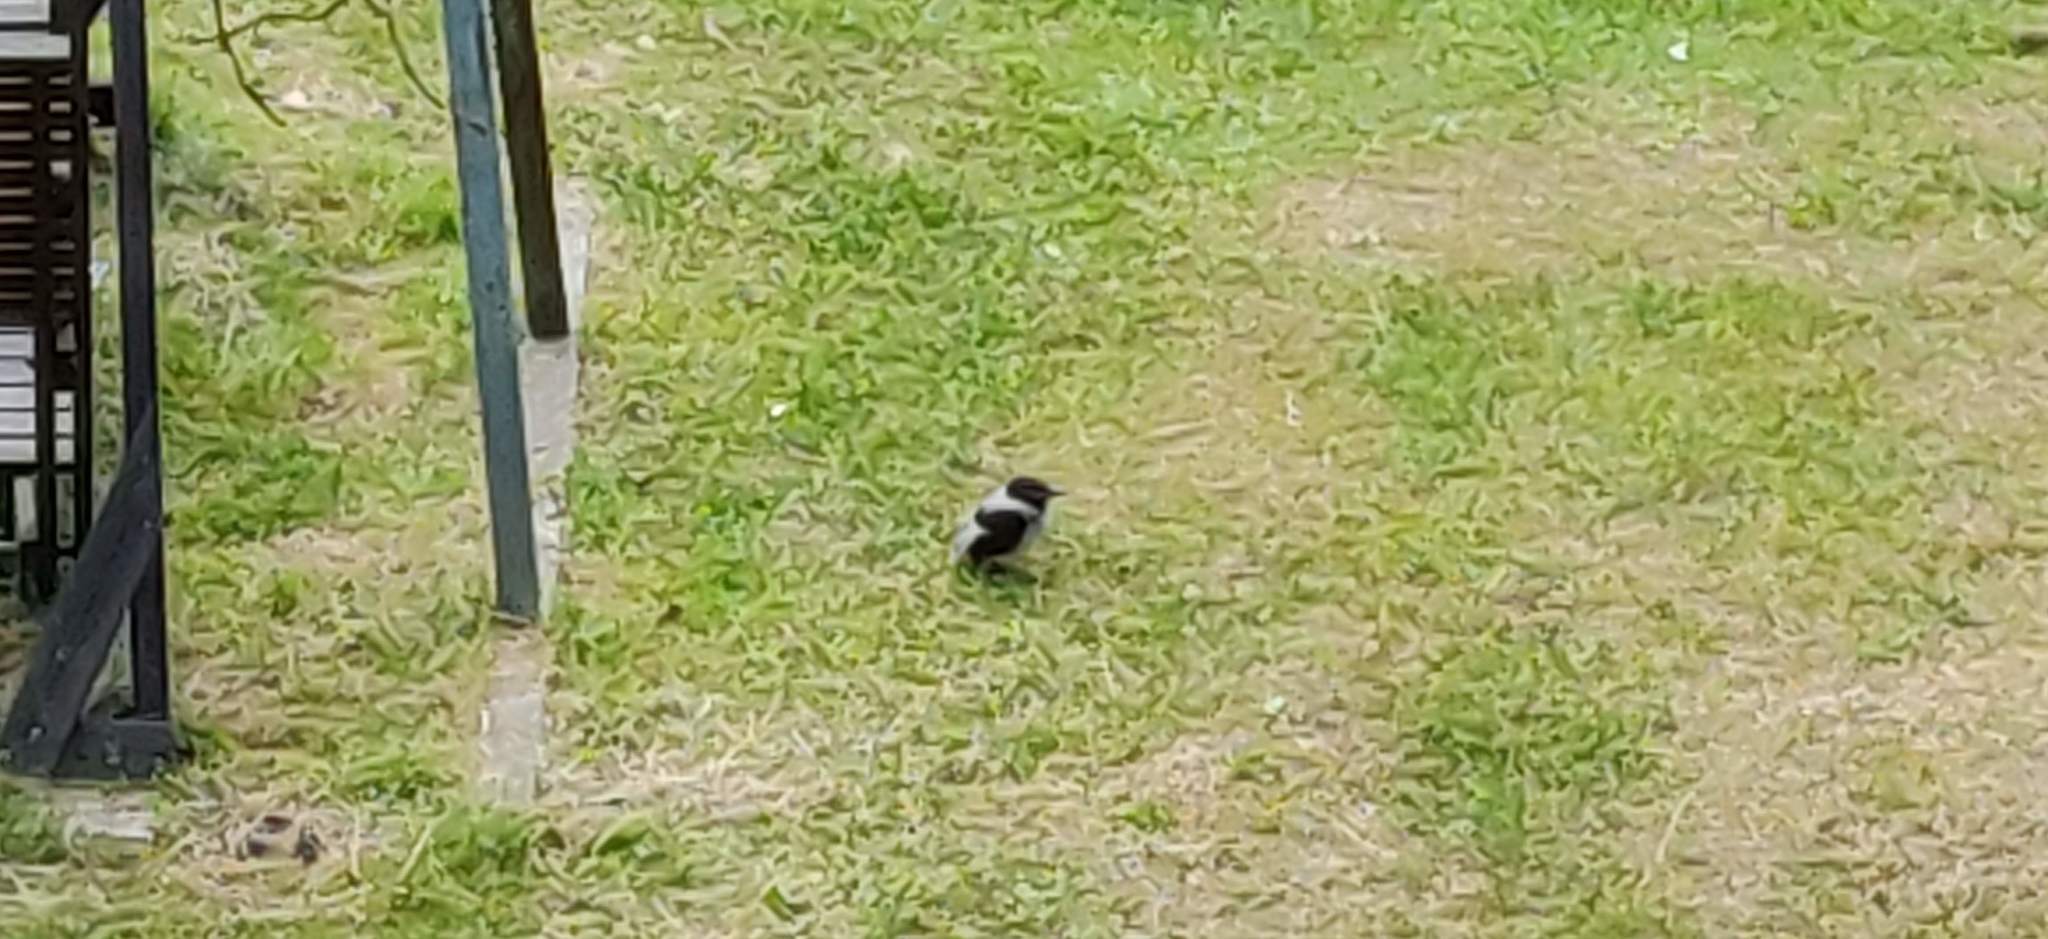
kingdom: Animalia
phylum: Chordata
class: Aves
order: Passeriformes
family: Corvidae
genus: Corvus
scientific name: Corvus cornix
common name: Hooded crow
